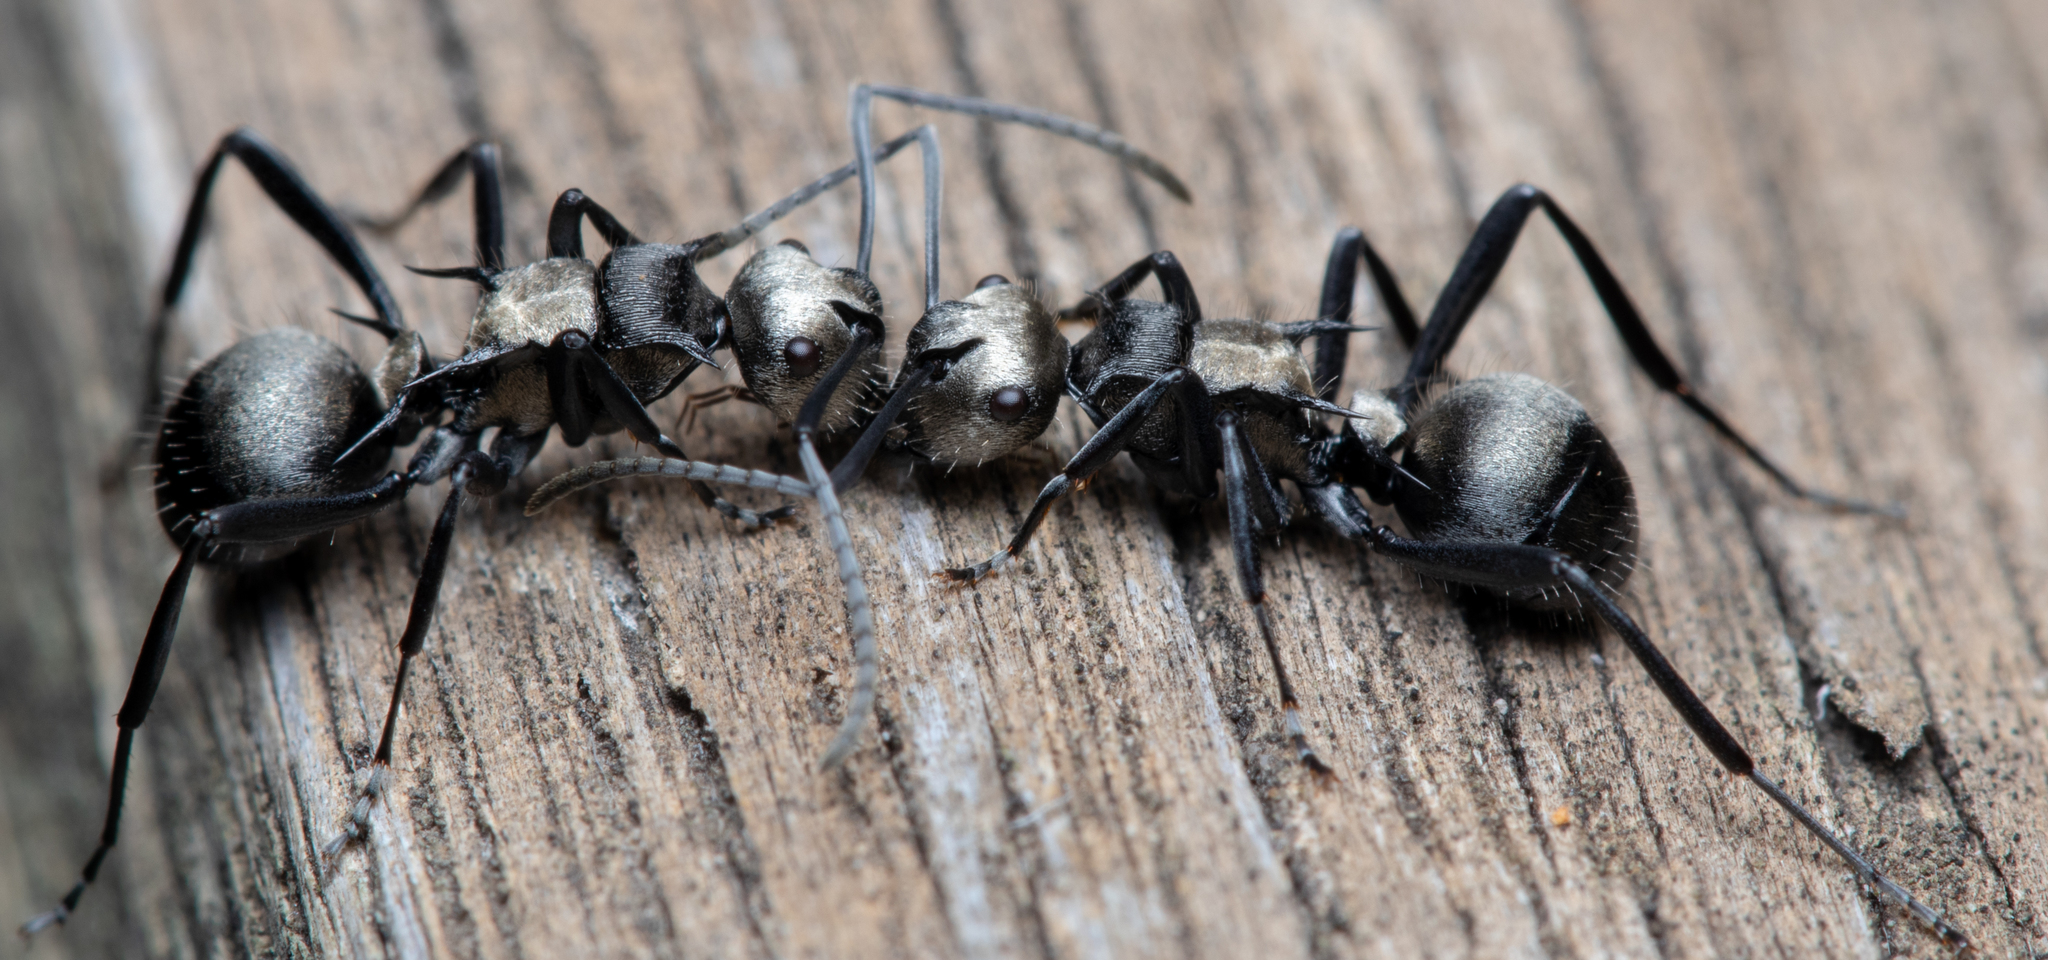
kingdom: Animalia
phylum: Arthropoda
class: Insecta
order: Hymenoptera
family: Formicidae
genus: Polyrhachis
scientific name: Polyrhachis daemeli
